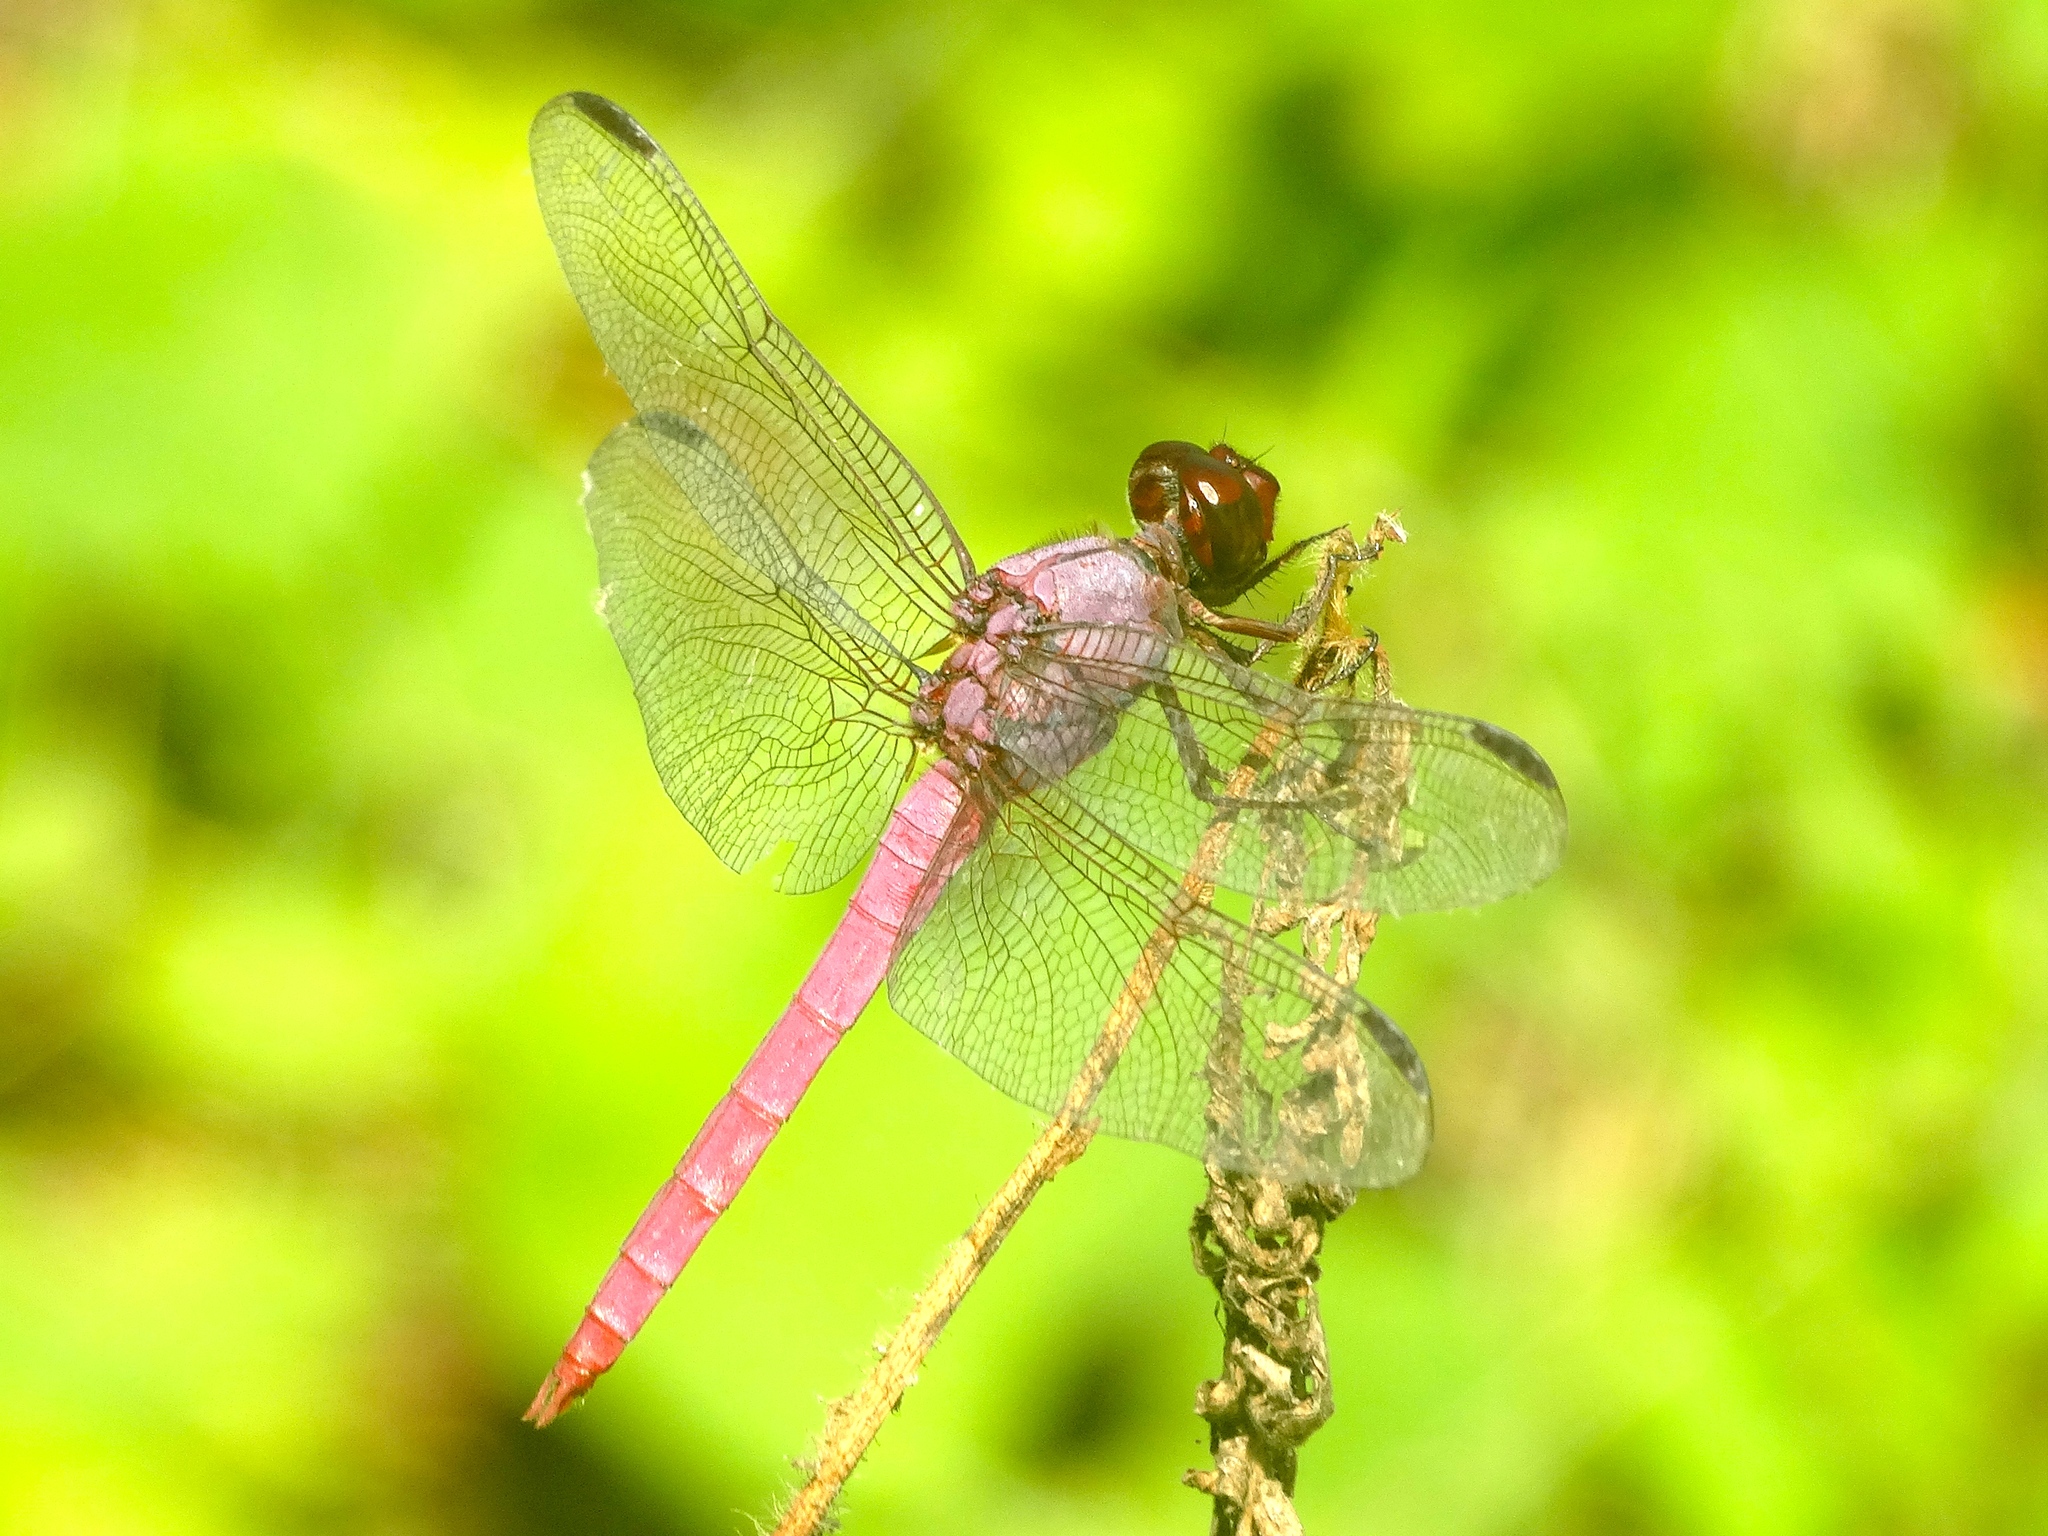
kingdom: Animalia
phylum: Arthropoda
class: Insecta
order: Odonata
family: Libellulidae
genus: Orthemis
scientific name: Orthemis discolor
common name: Carmine skimmer
